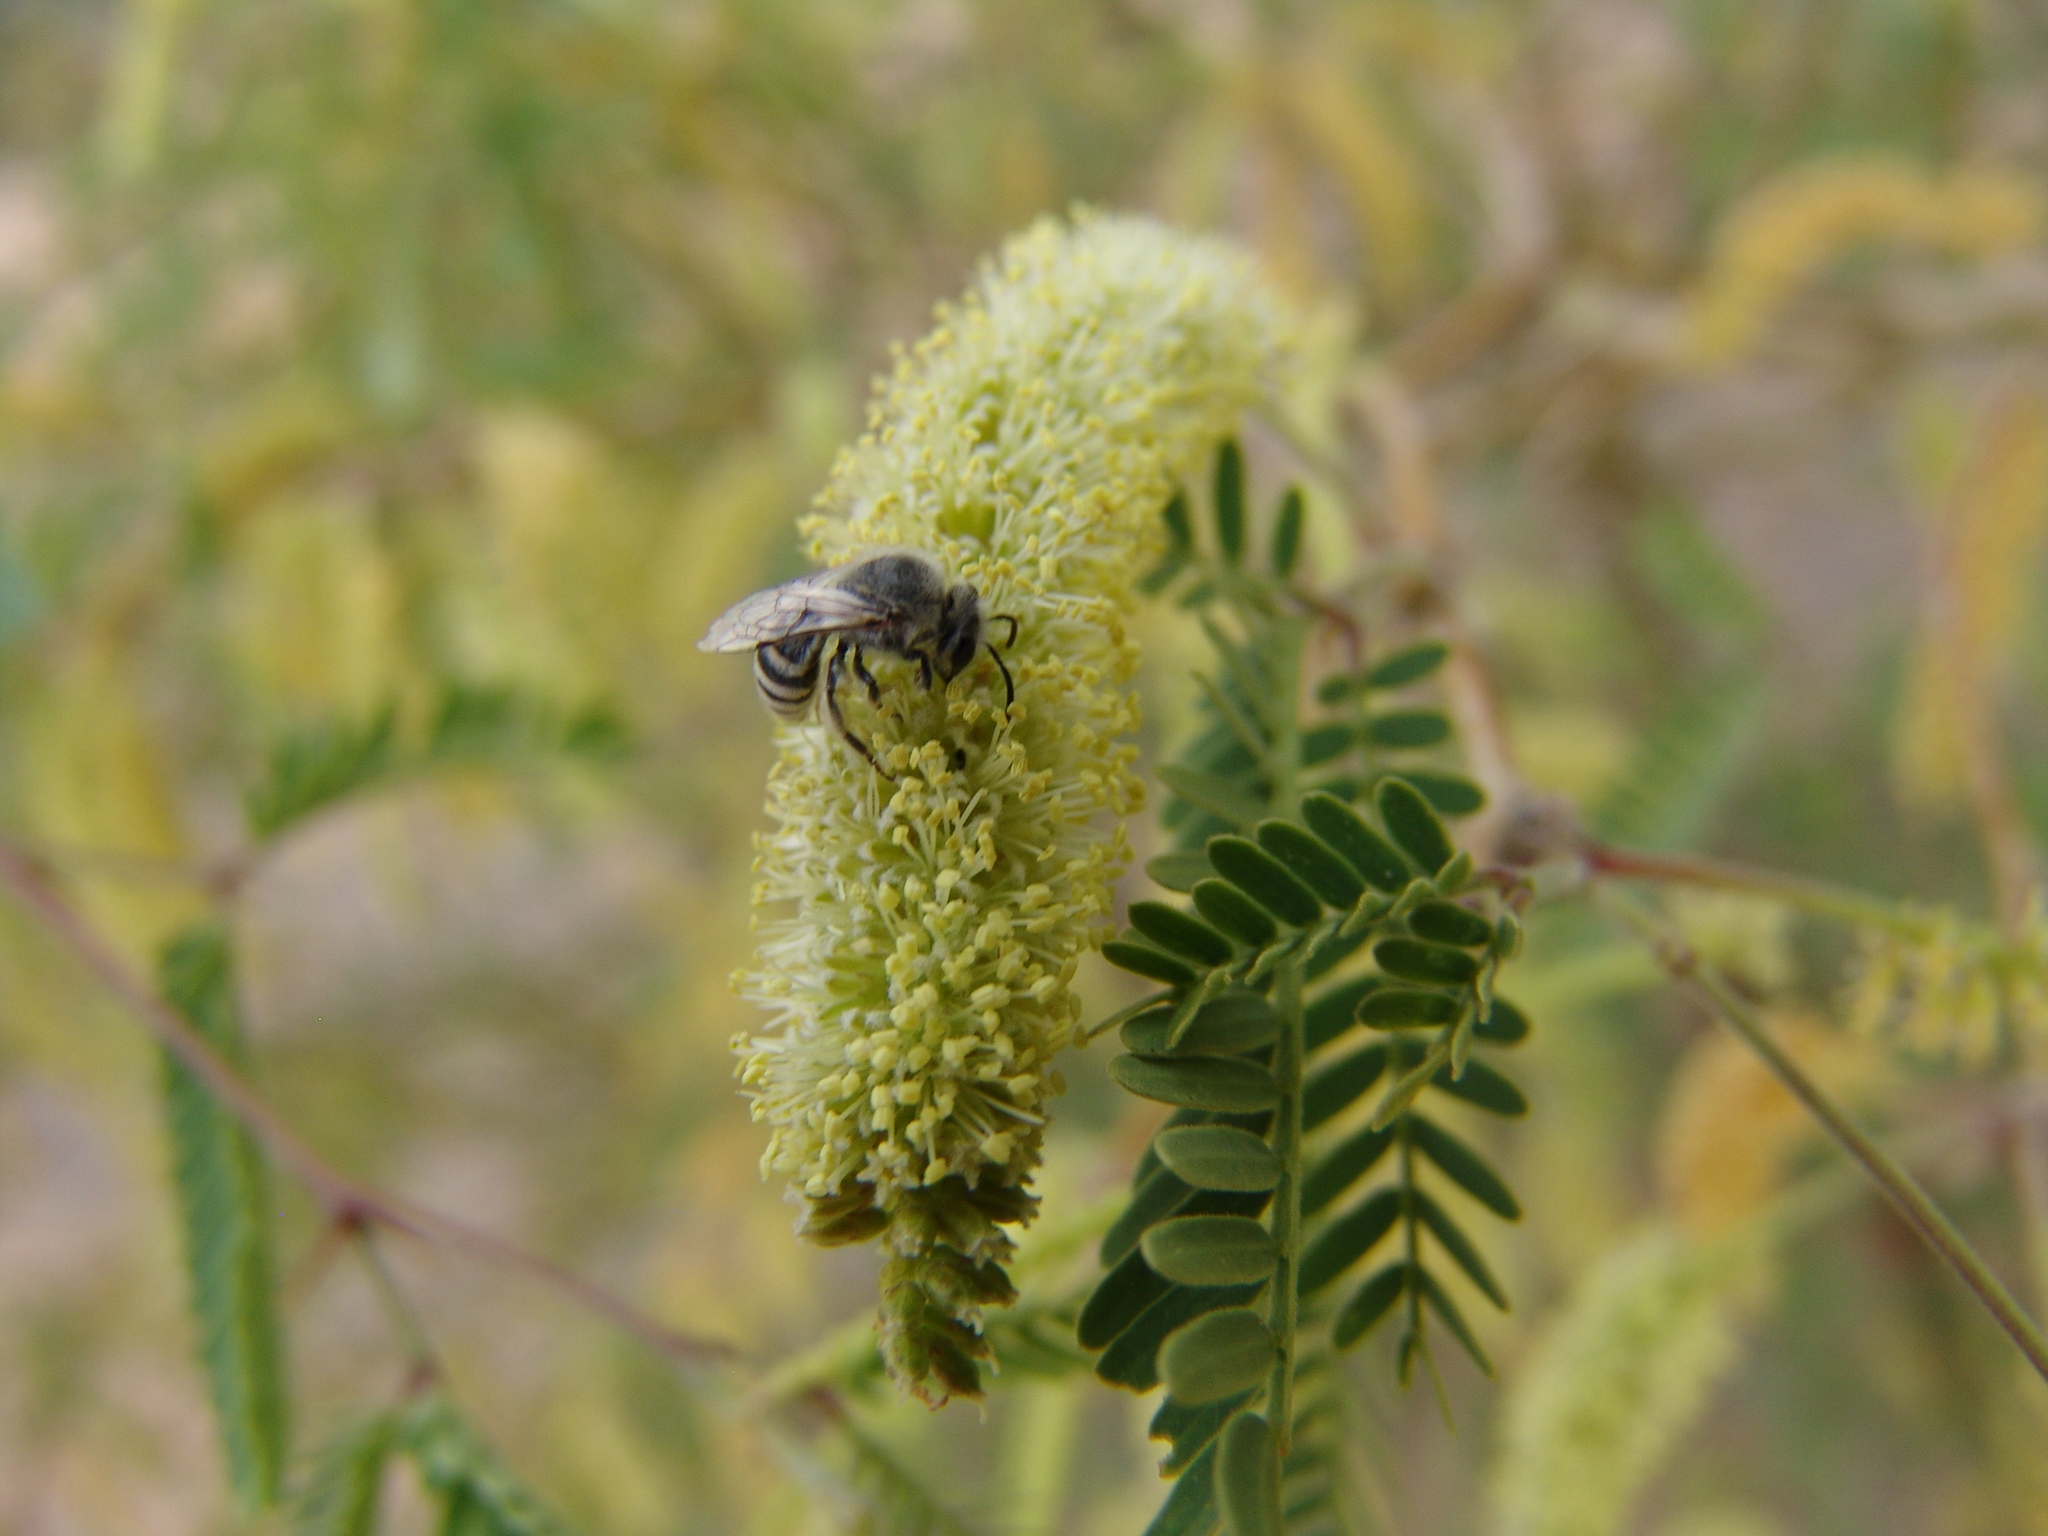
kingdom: Animalia
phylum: Arthropoda
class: Insecta
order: Hymenoptera
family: Colletidae
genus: Colletes
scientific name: Colletes
